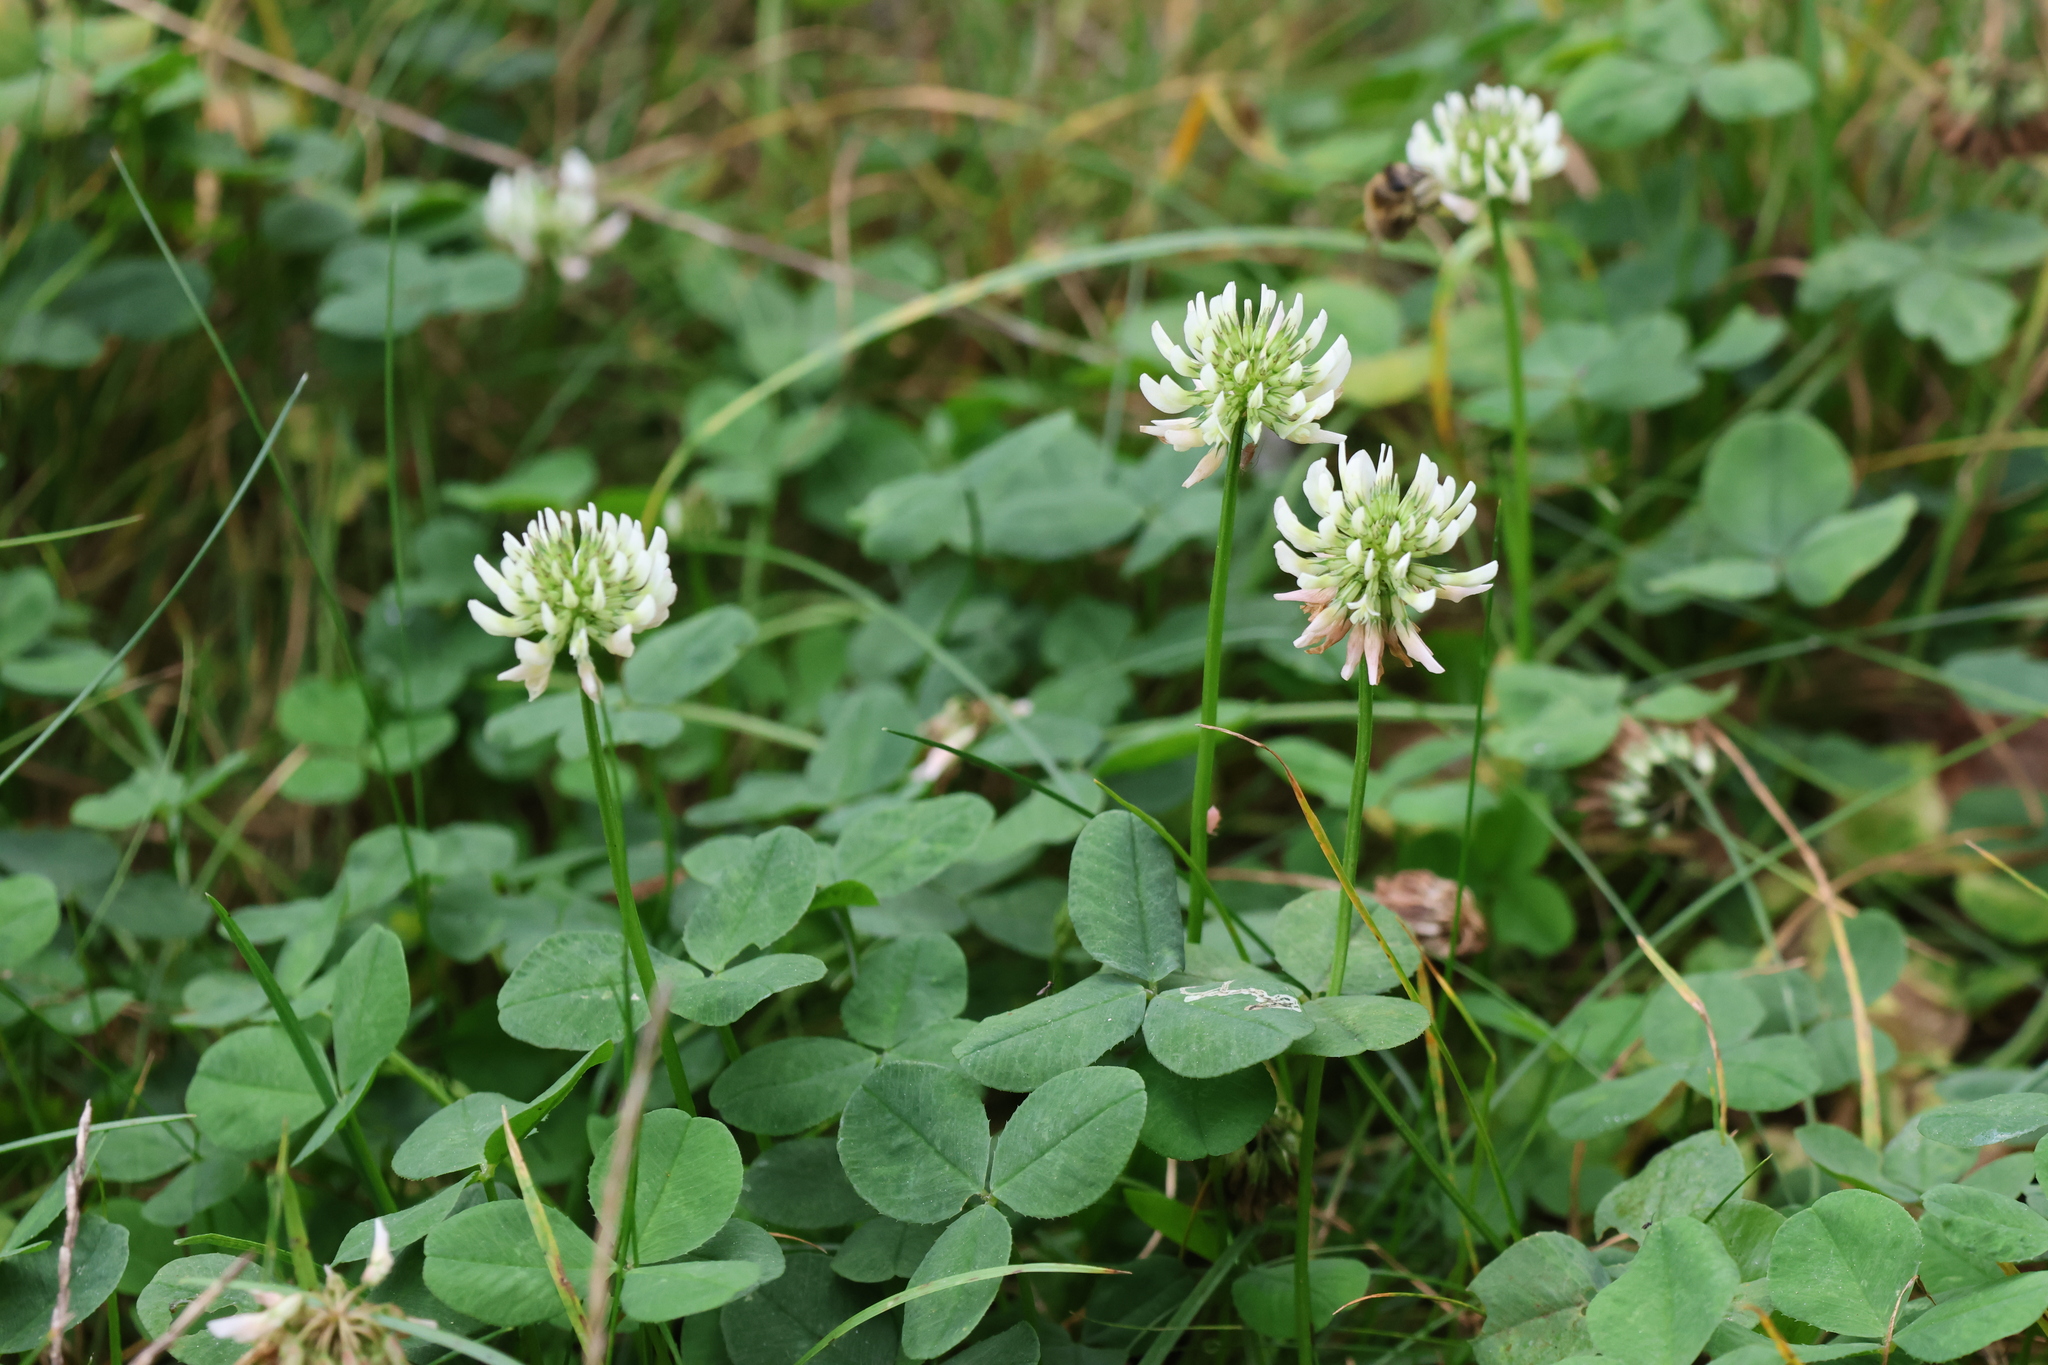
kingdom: Plantae
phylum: Tracheophyta
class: Magnoliopsida
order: Fabales
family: Fabaceae
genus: Trifolium
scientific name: Trifolium repens
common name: White clover
